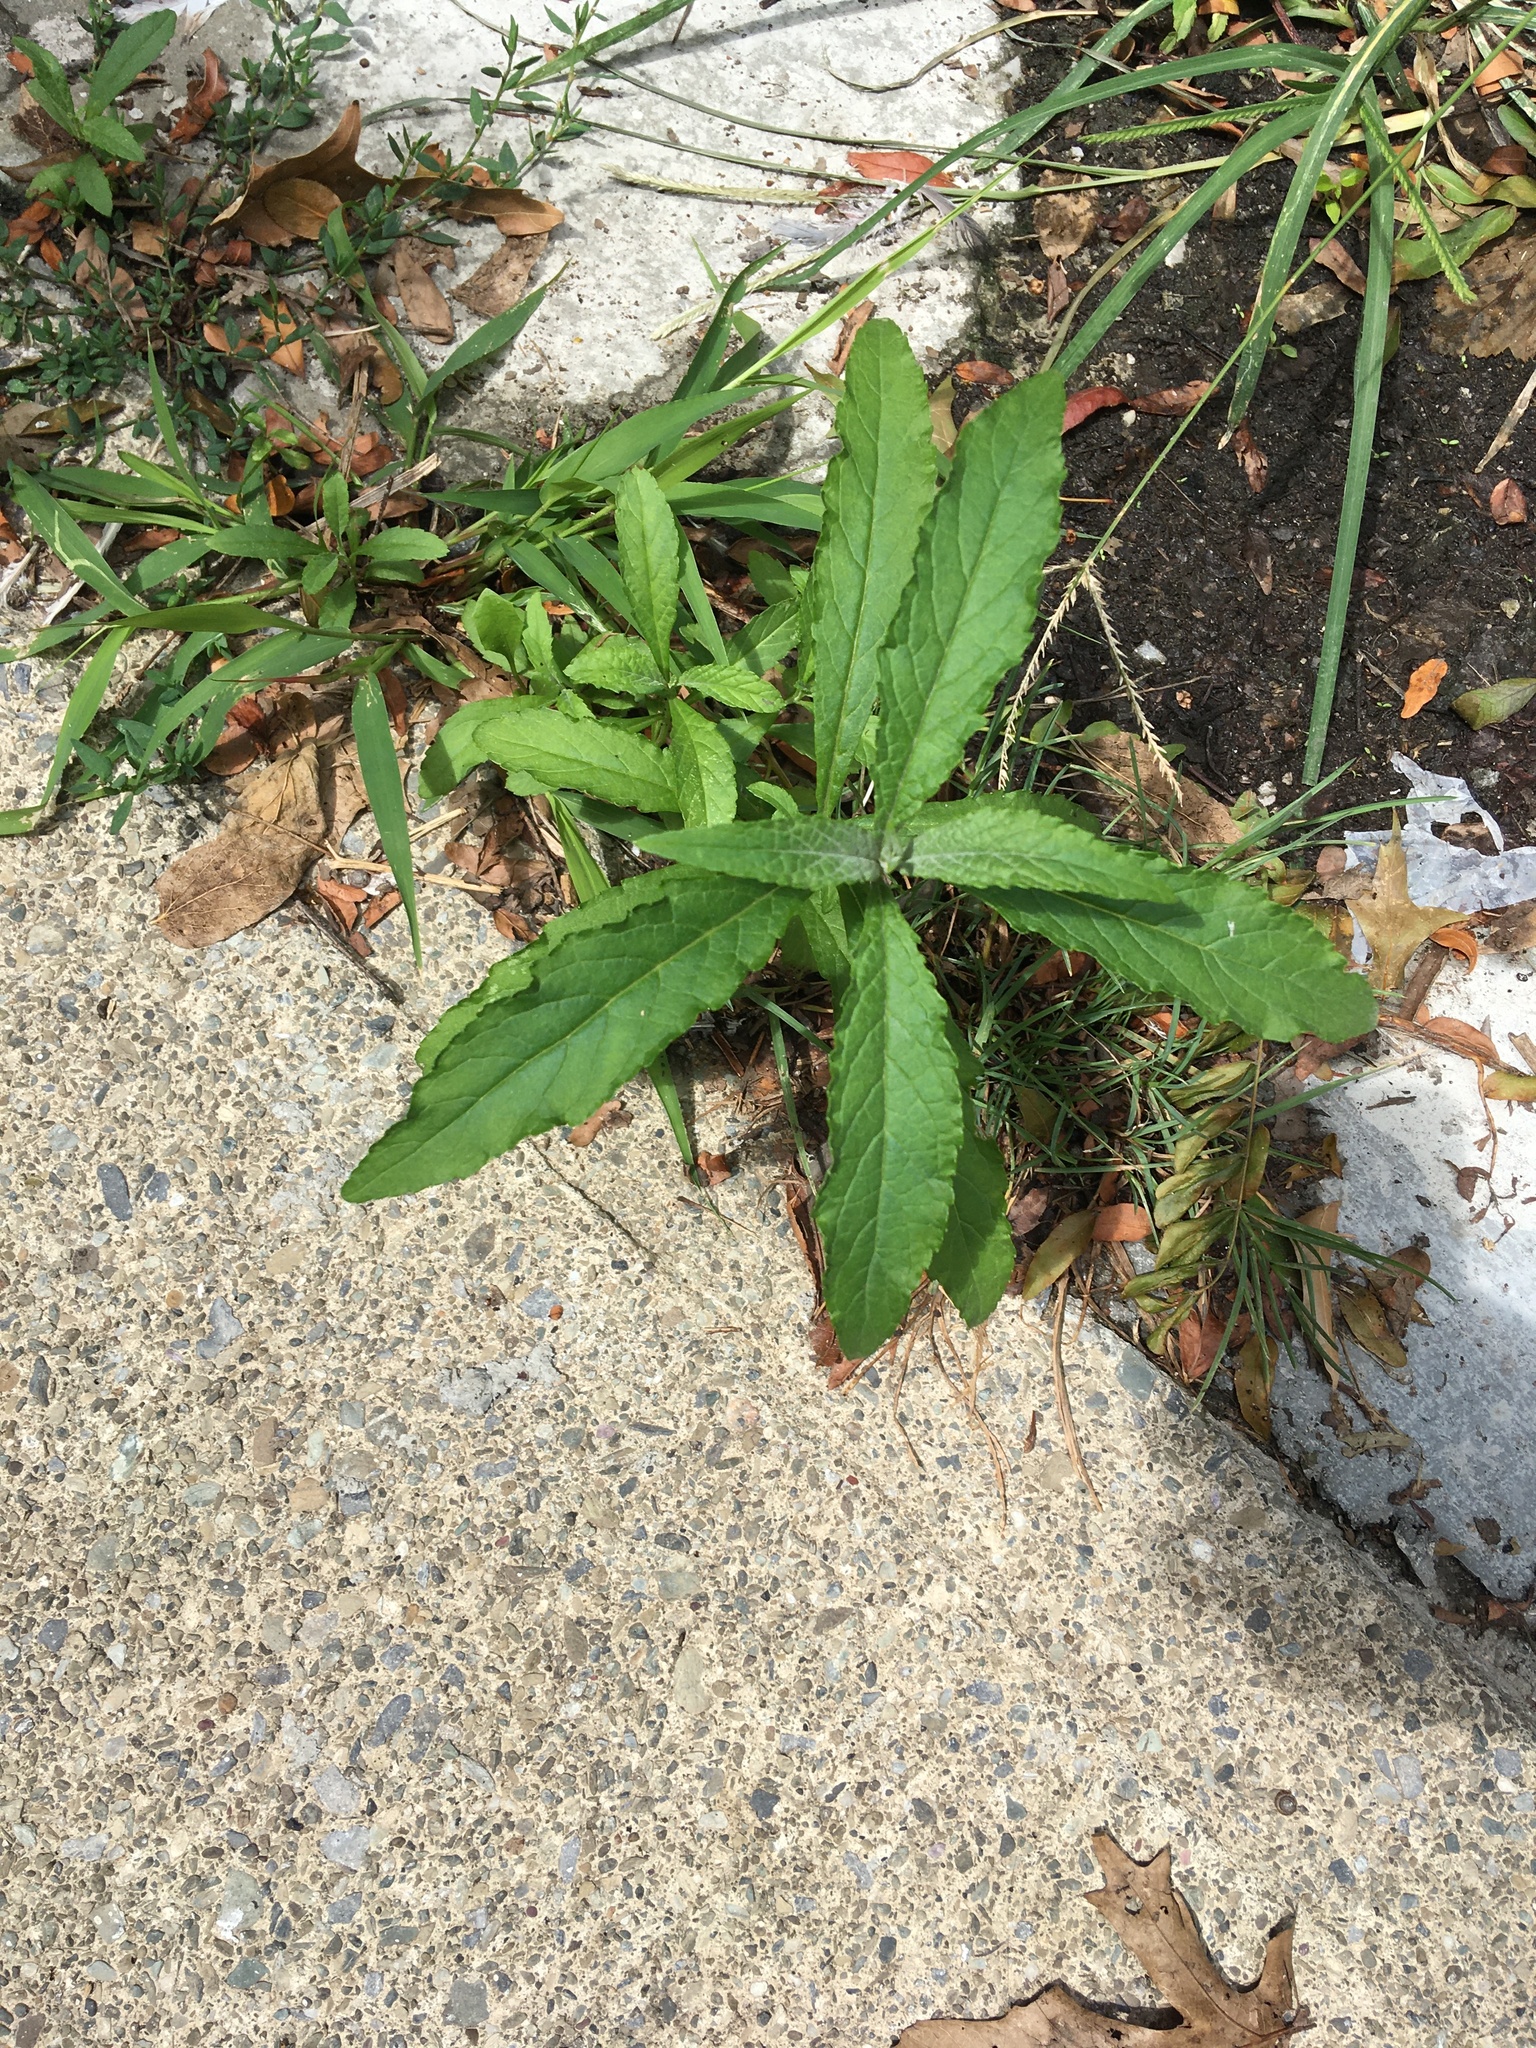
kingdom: Plantae
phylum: Tracheophyta
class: Magnoliopsida
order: Lamiales
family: Scrophulariaceae
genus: Buddleja
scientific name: Buddleja davidii
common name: Butterfly-bush
